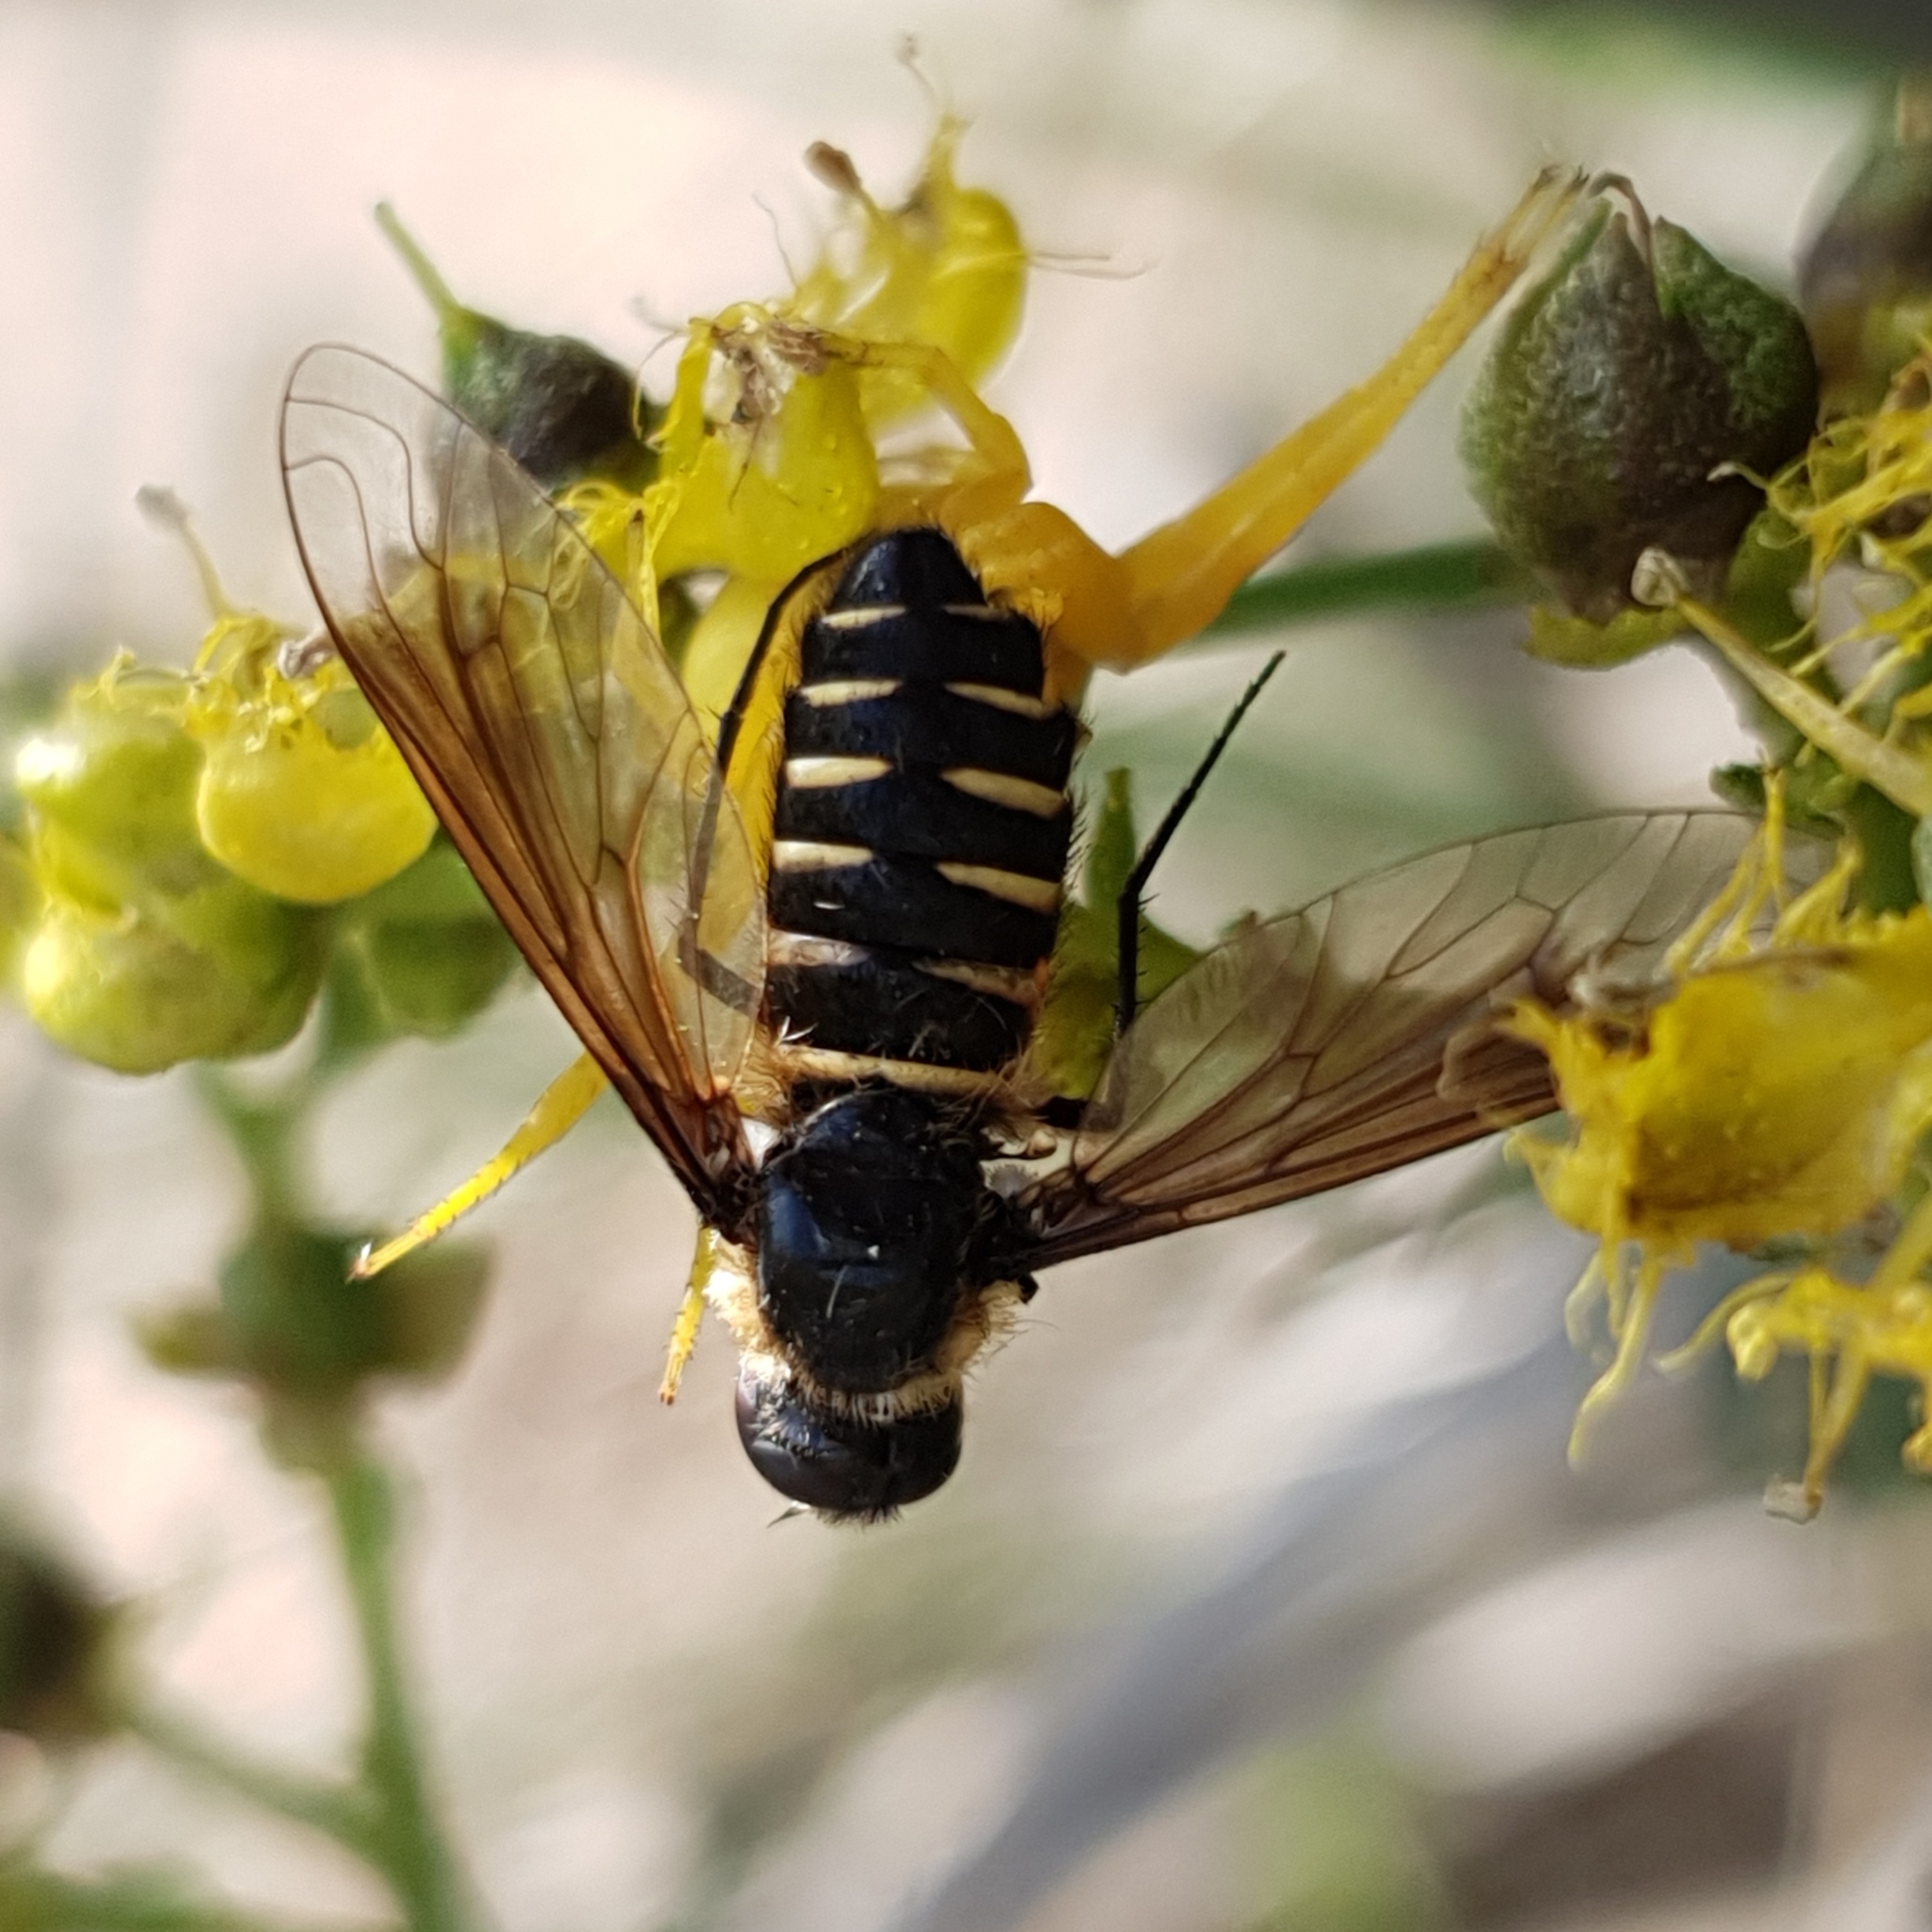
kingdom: Animalia
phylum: Arthropoda
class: Insecta
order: Diptera
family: Bombyliidae
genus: Lomatia
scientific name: Lomatia lateralis
